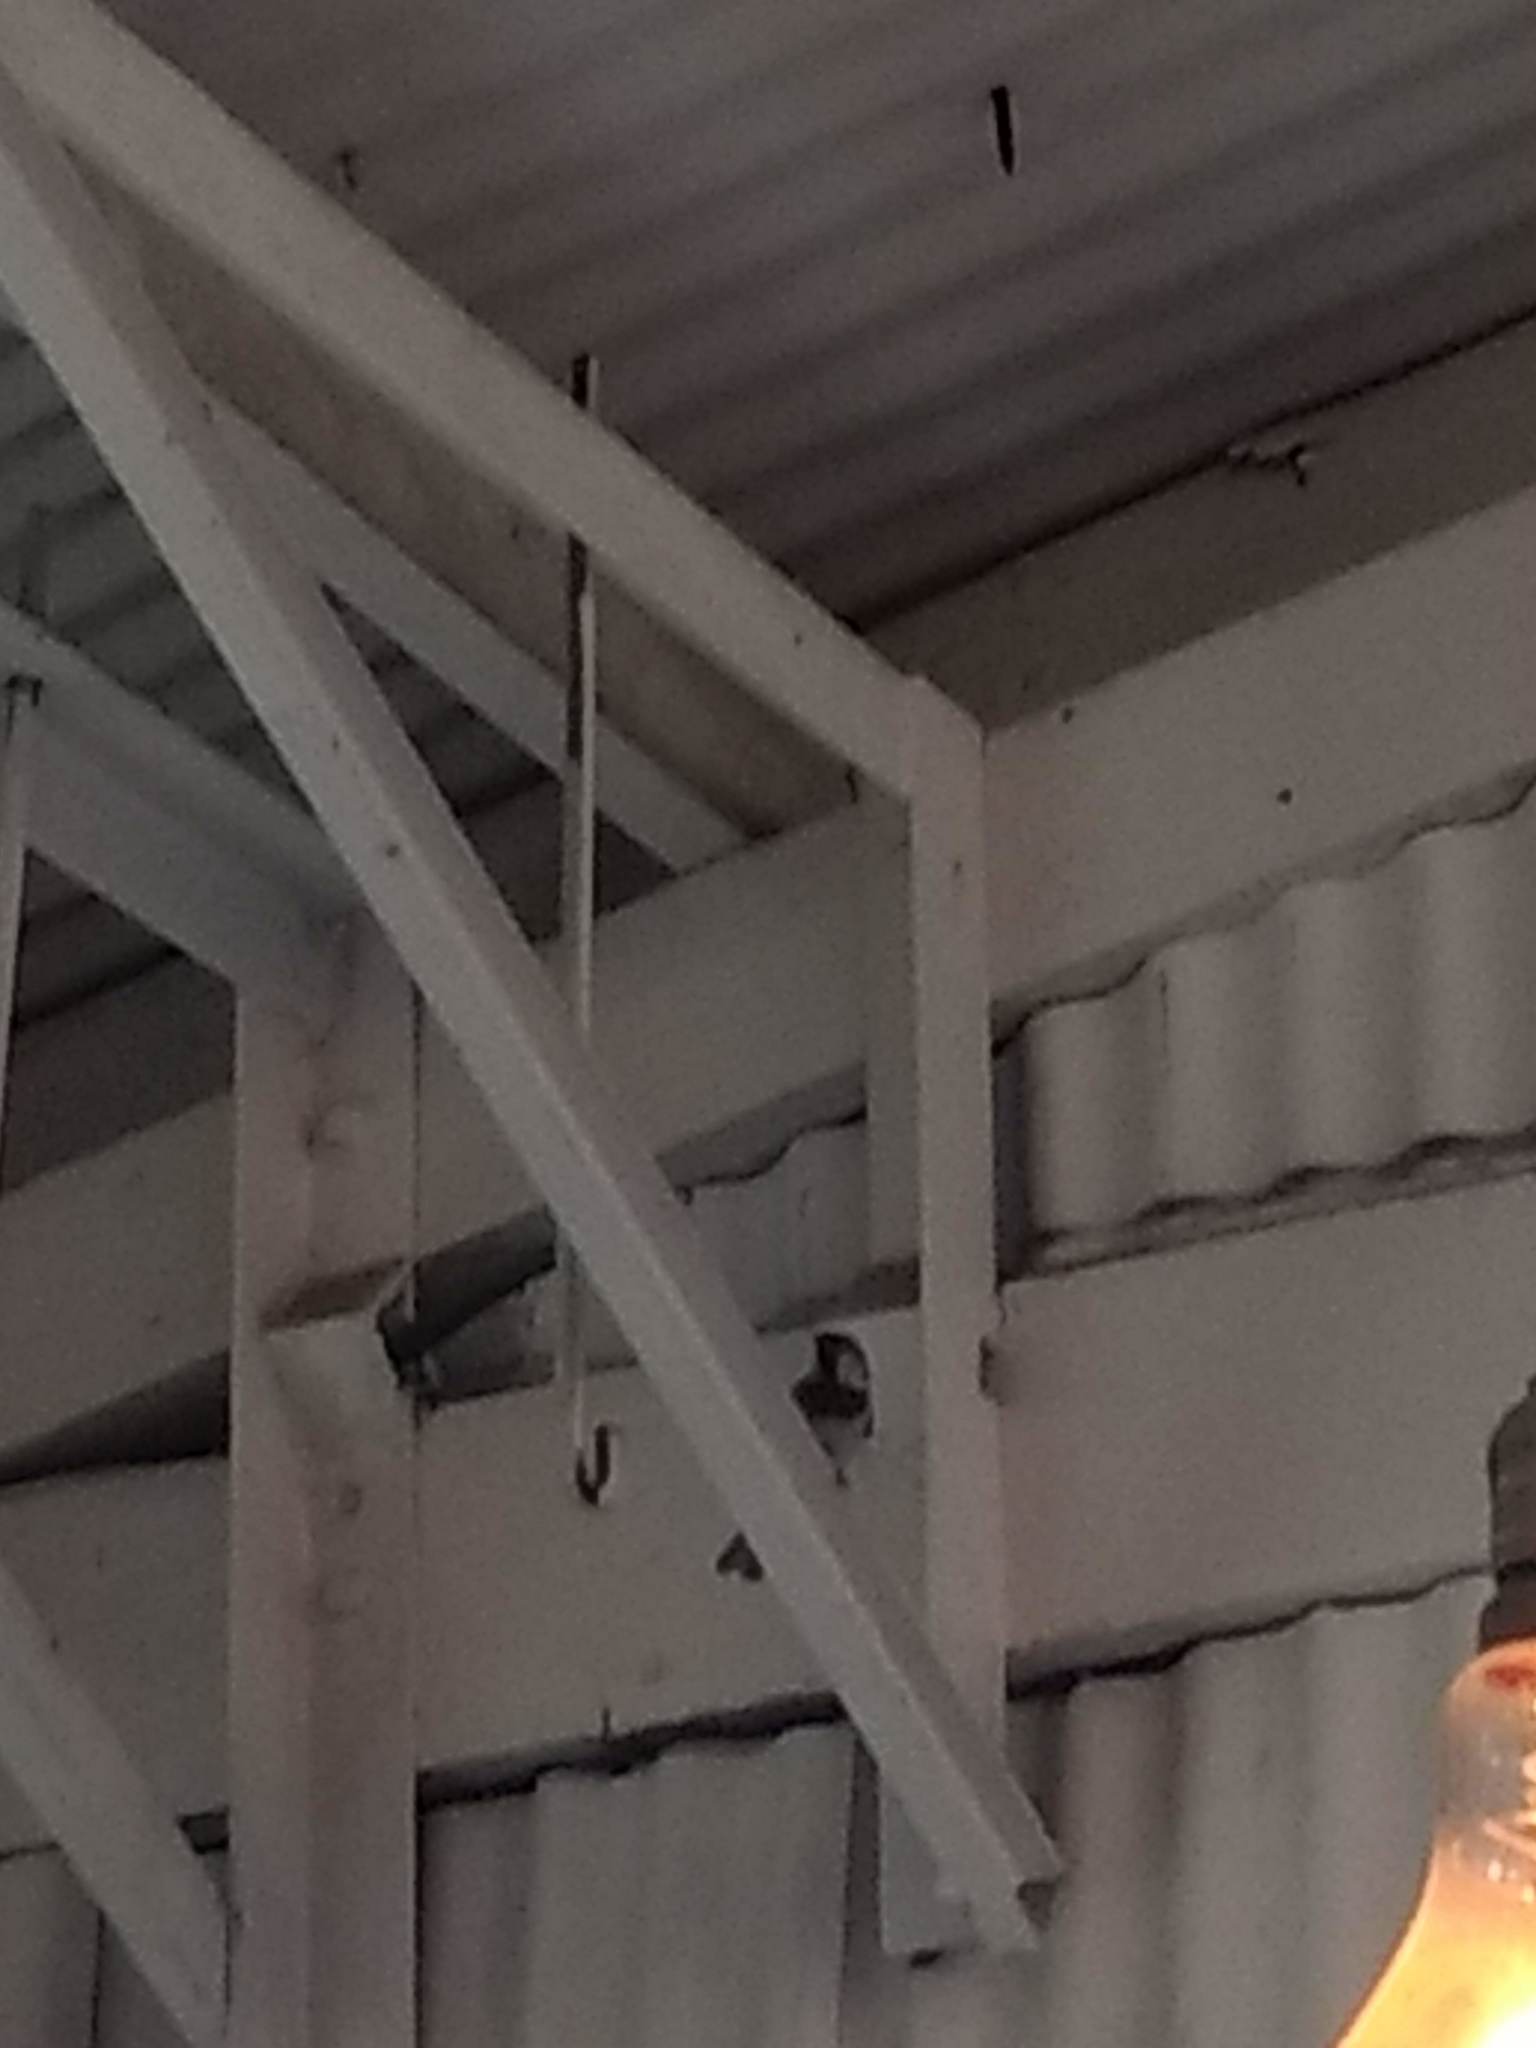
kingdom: Animalia
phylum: Chordata
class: Aves
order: Passeriformes
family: Passeridae
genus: Passer
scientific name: Passer domesticus
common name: House sparrow
